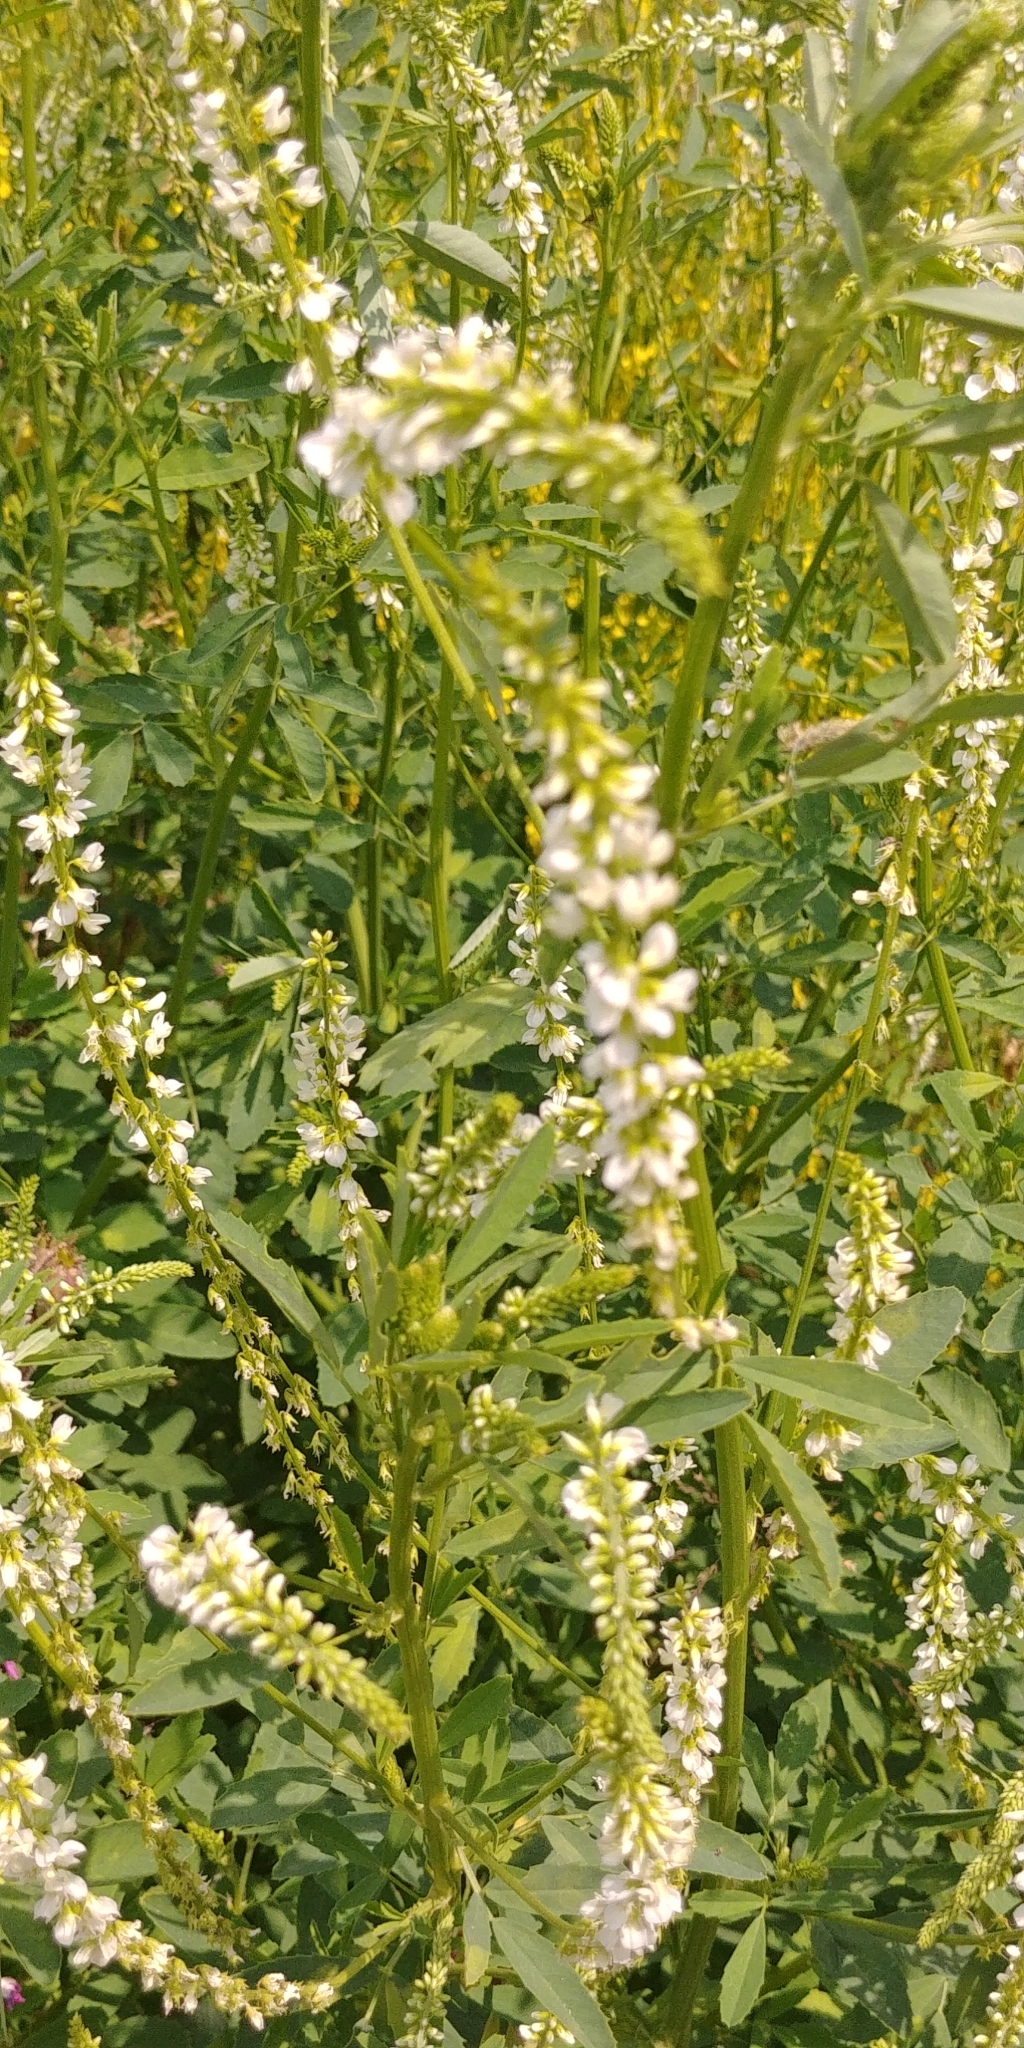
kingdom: Plantae
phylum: Tracheophyta
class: Magnoliopsida
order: Fabales
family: Fabaceae
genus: Melilotus
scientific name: Melilotus albus
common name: White melilot
